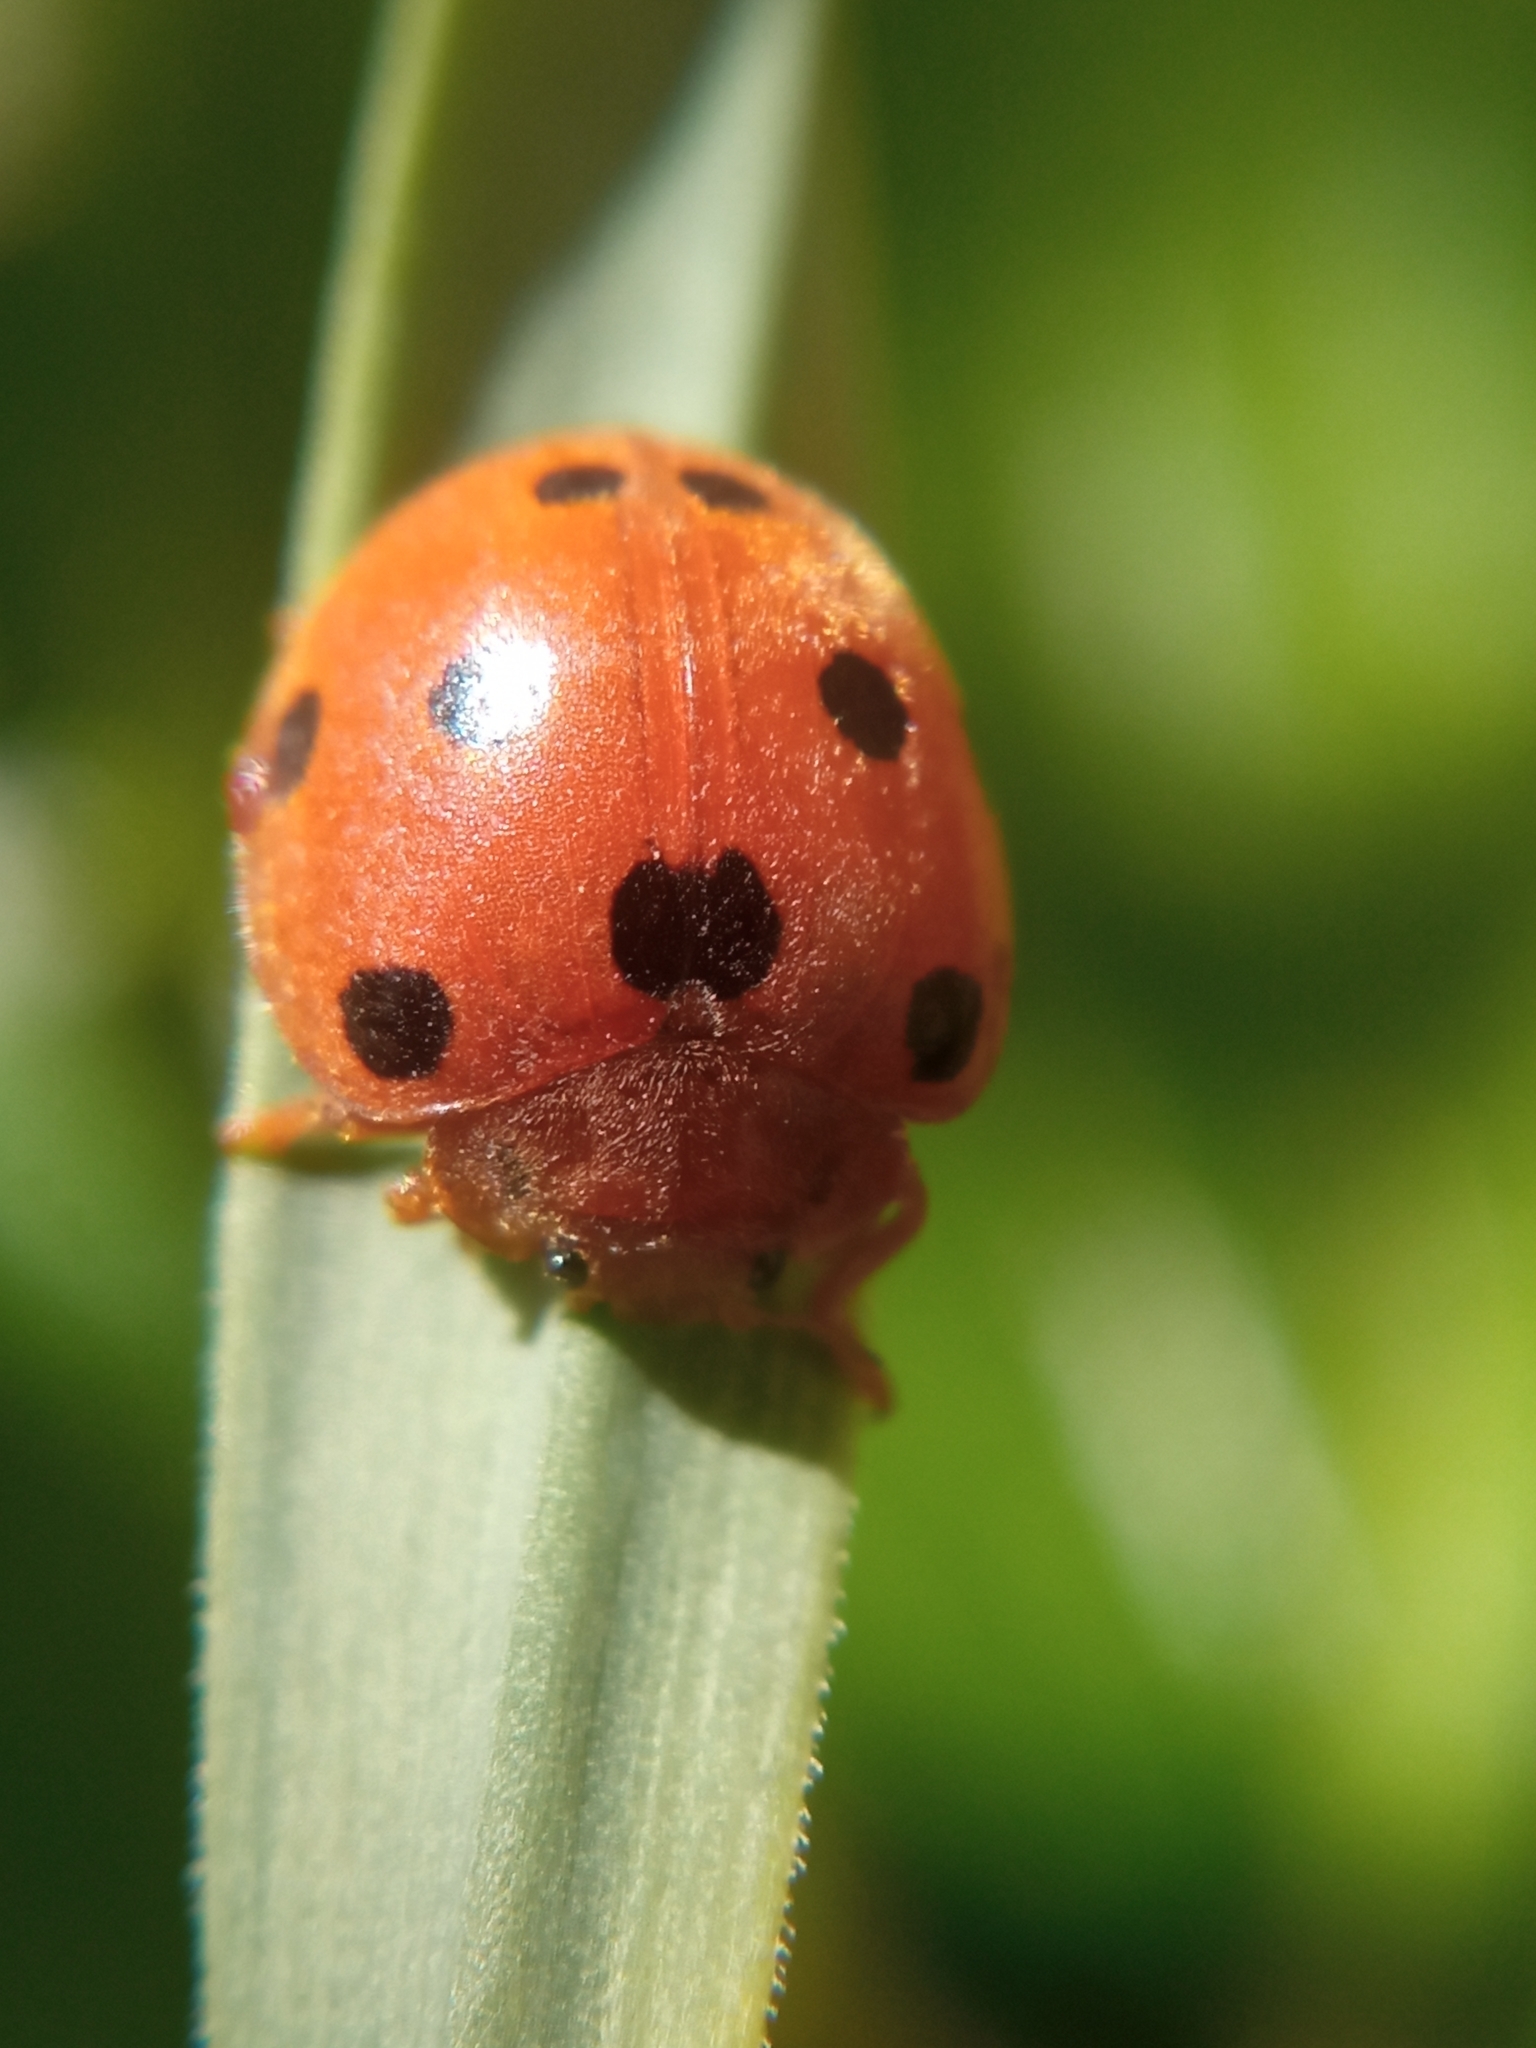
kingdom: Animalia
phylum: Arthropoda
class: Insecta
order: Coleoptera
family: Coccinellidae
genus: Henosepilachna
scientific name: Henosepilachna argus
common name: Bryony ladybird
